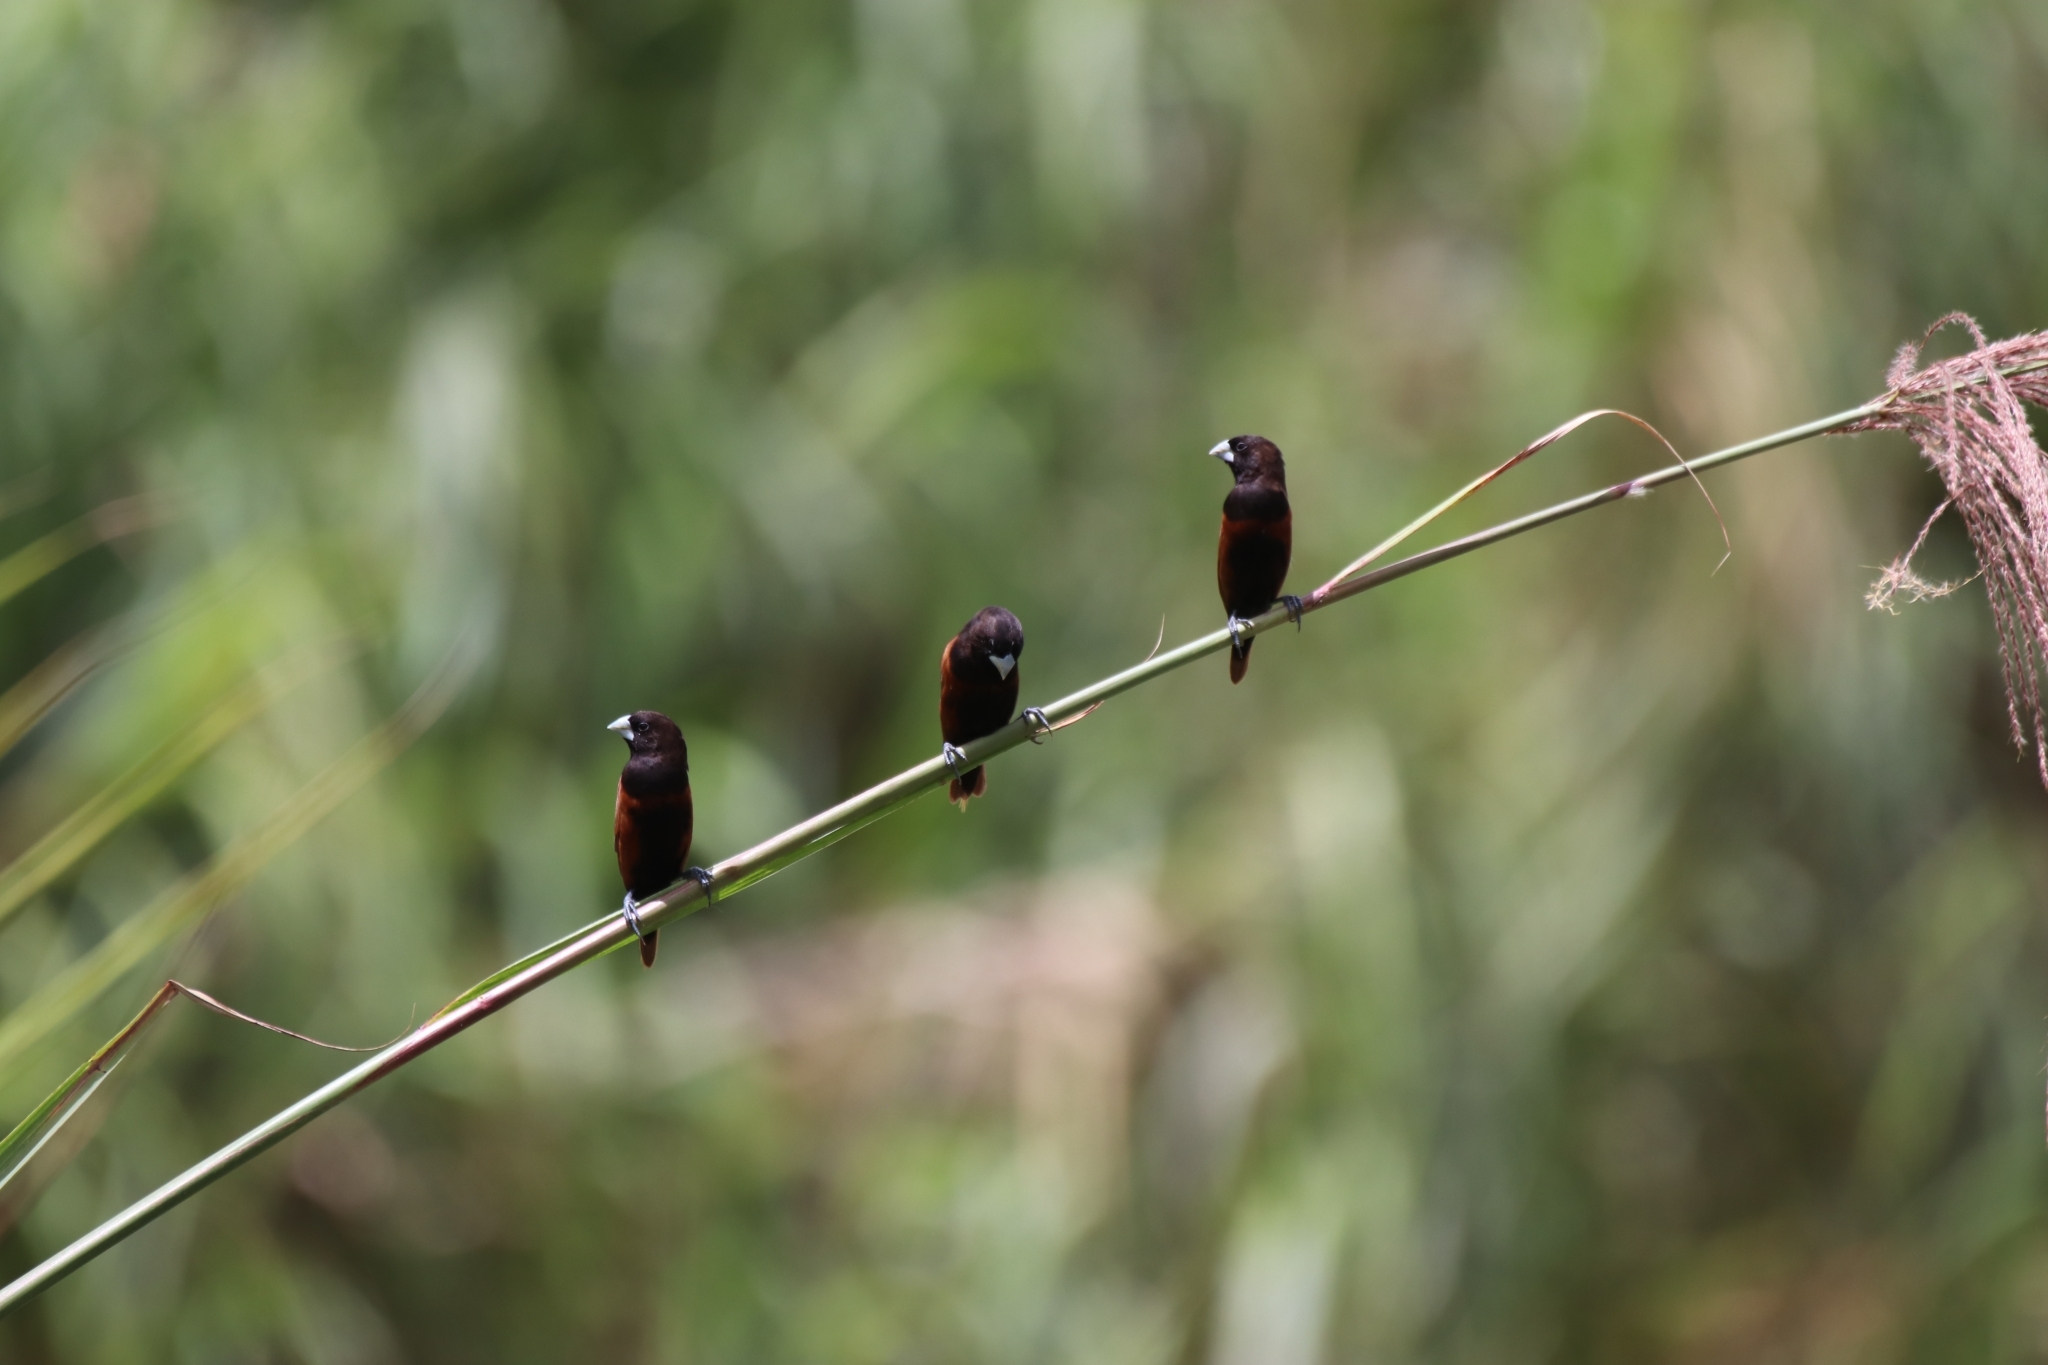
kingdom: Animalia
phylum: Chordata
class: Aves
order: Passeriformes
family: Estrildidae
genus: Lonchura
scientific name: Lonchura atricapilla
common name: Chestnut munia
